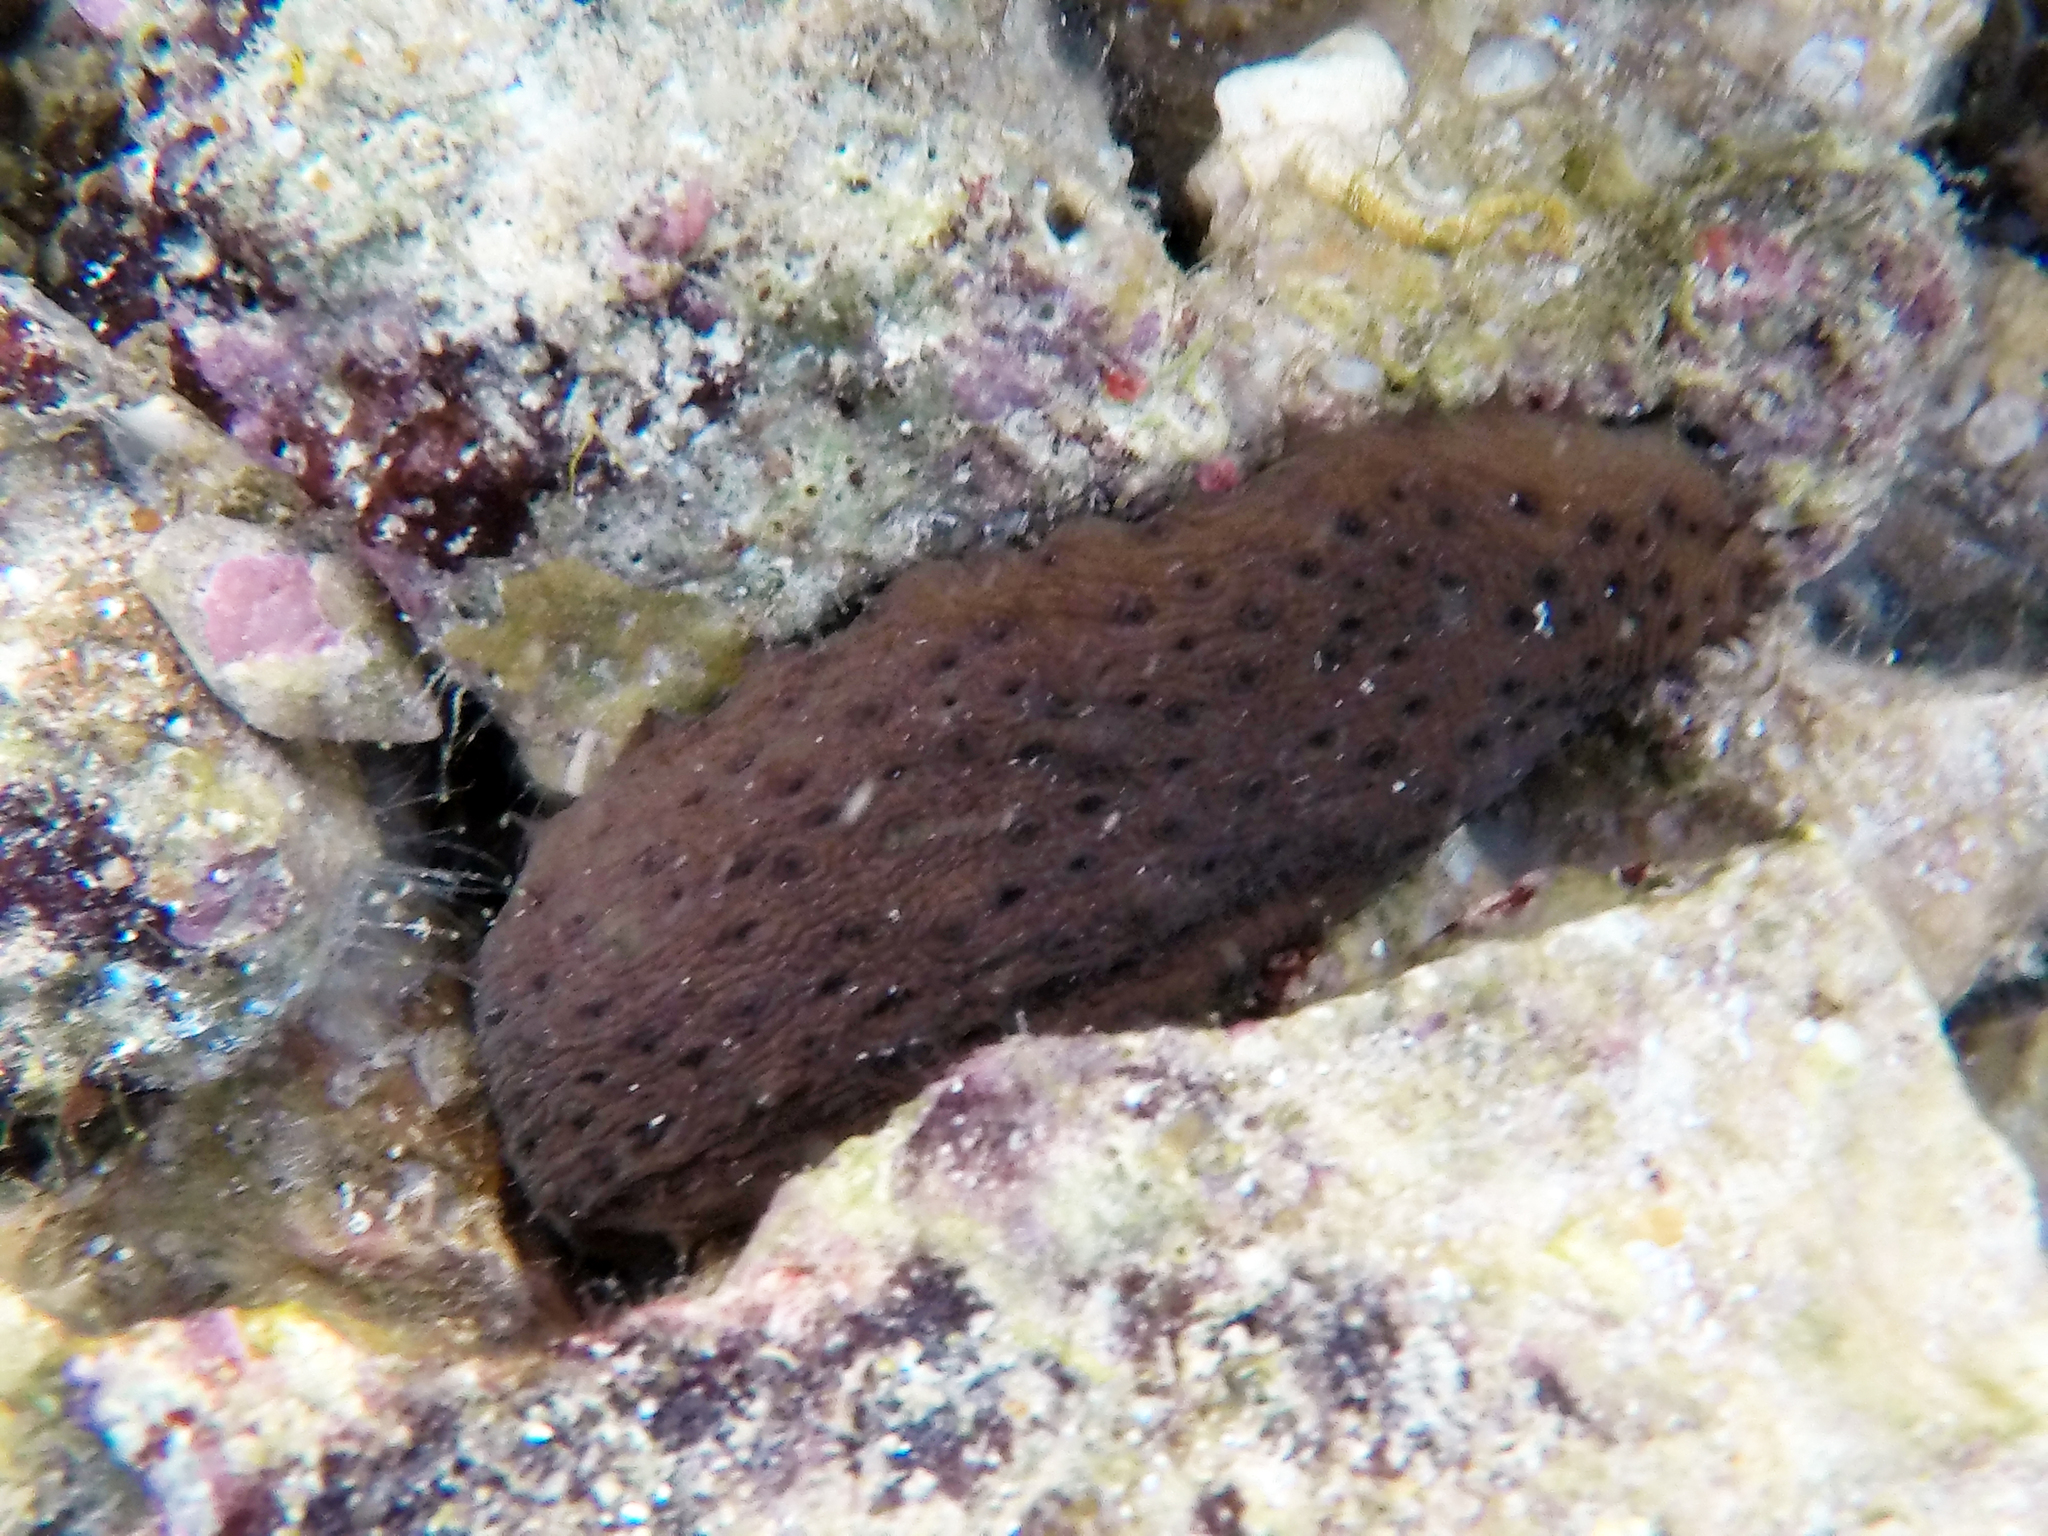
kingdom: Animalia
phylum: Echinodermata
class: Holothuroidea
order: Holothuriida
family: Holothuriidae
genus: Holothuria
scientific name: Holothuria sanctori
